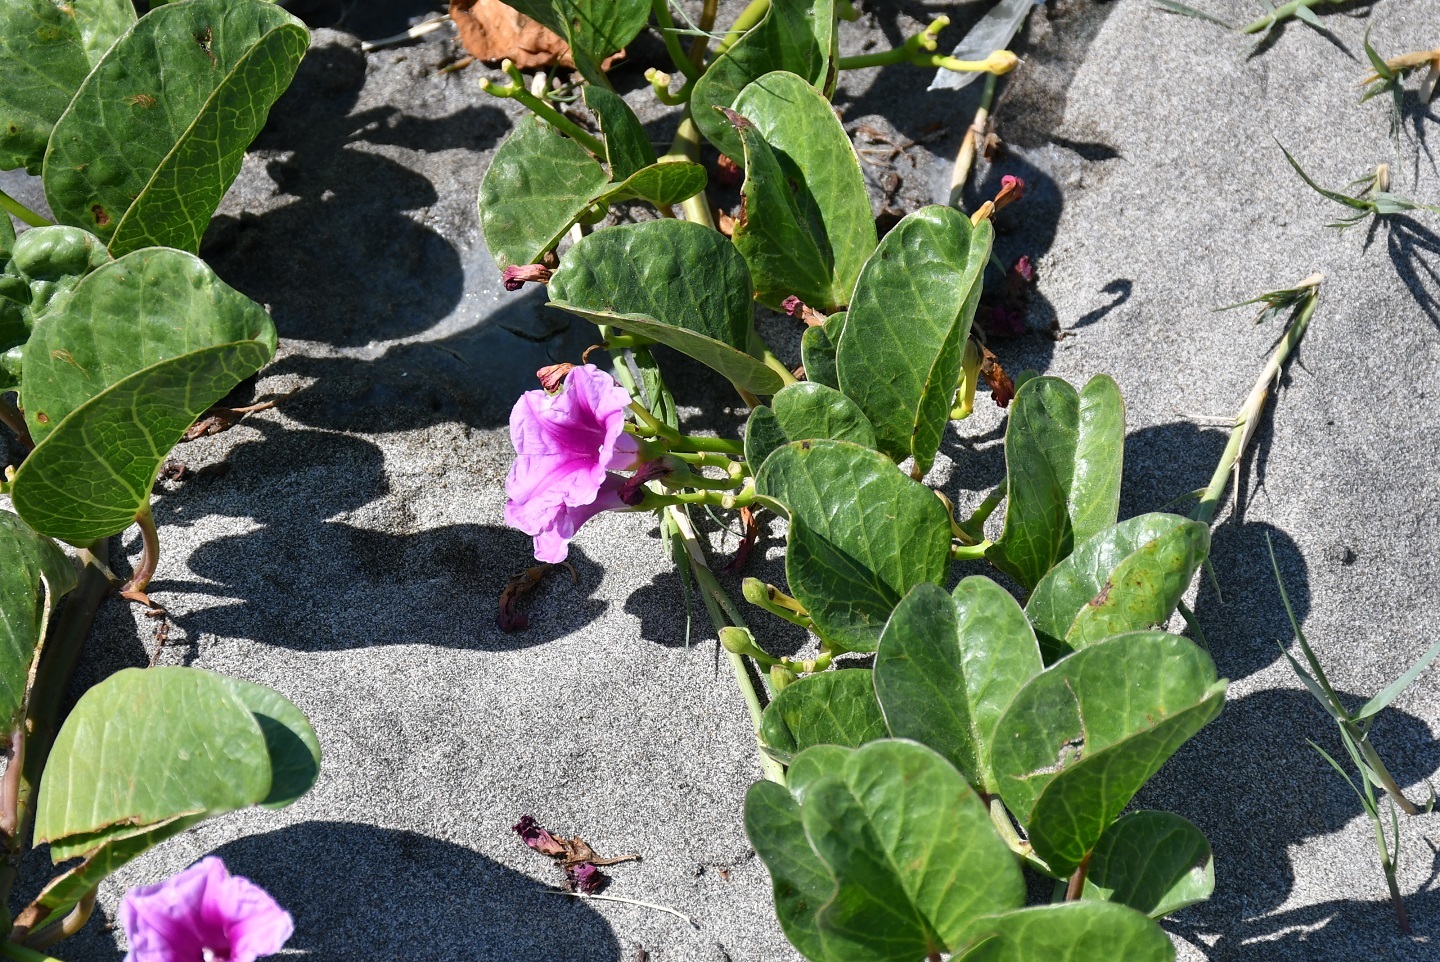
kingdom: Plantae
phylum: Tracheophyta
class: Magnoliopsida
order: Solanales
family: Convolvulaceae
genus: Ipomoea
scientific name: Ipomoea pes-caprae
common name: Beach morning glory
